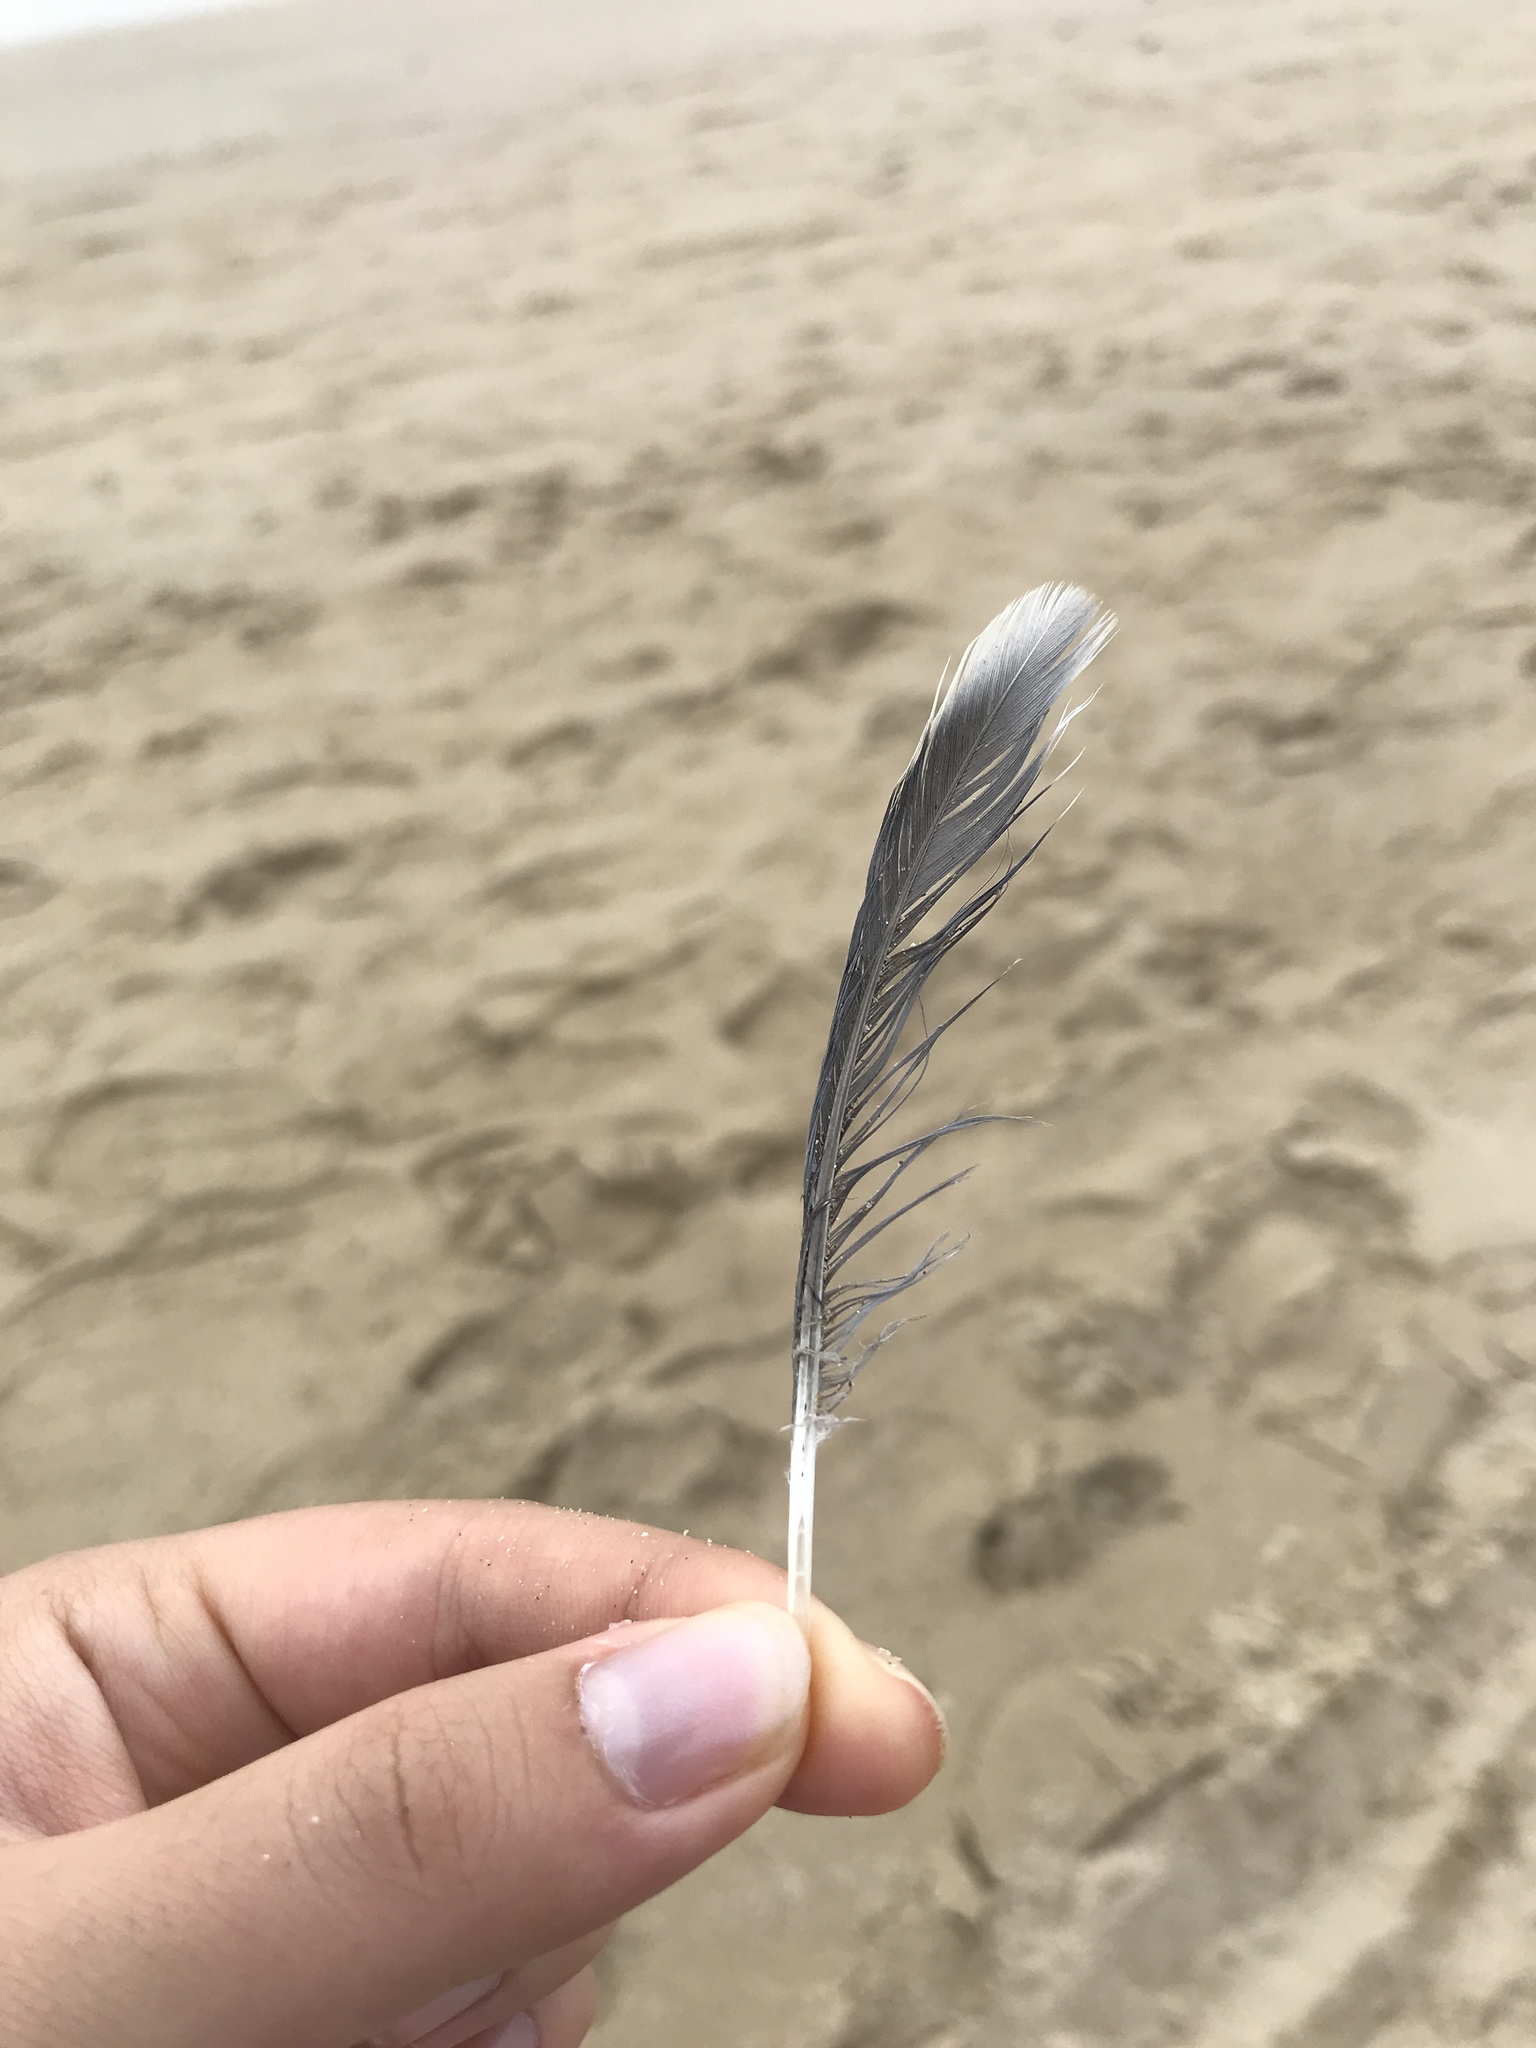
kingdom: Animalia
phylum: Chordata
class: Aves
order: Columbiformes
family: Columbidae
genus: Zenaida
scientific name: Zenaida aurita
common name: Zenaida dove
